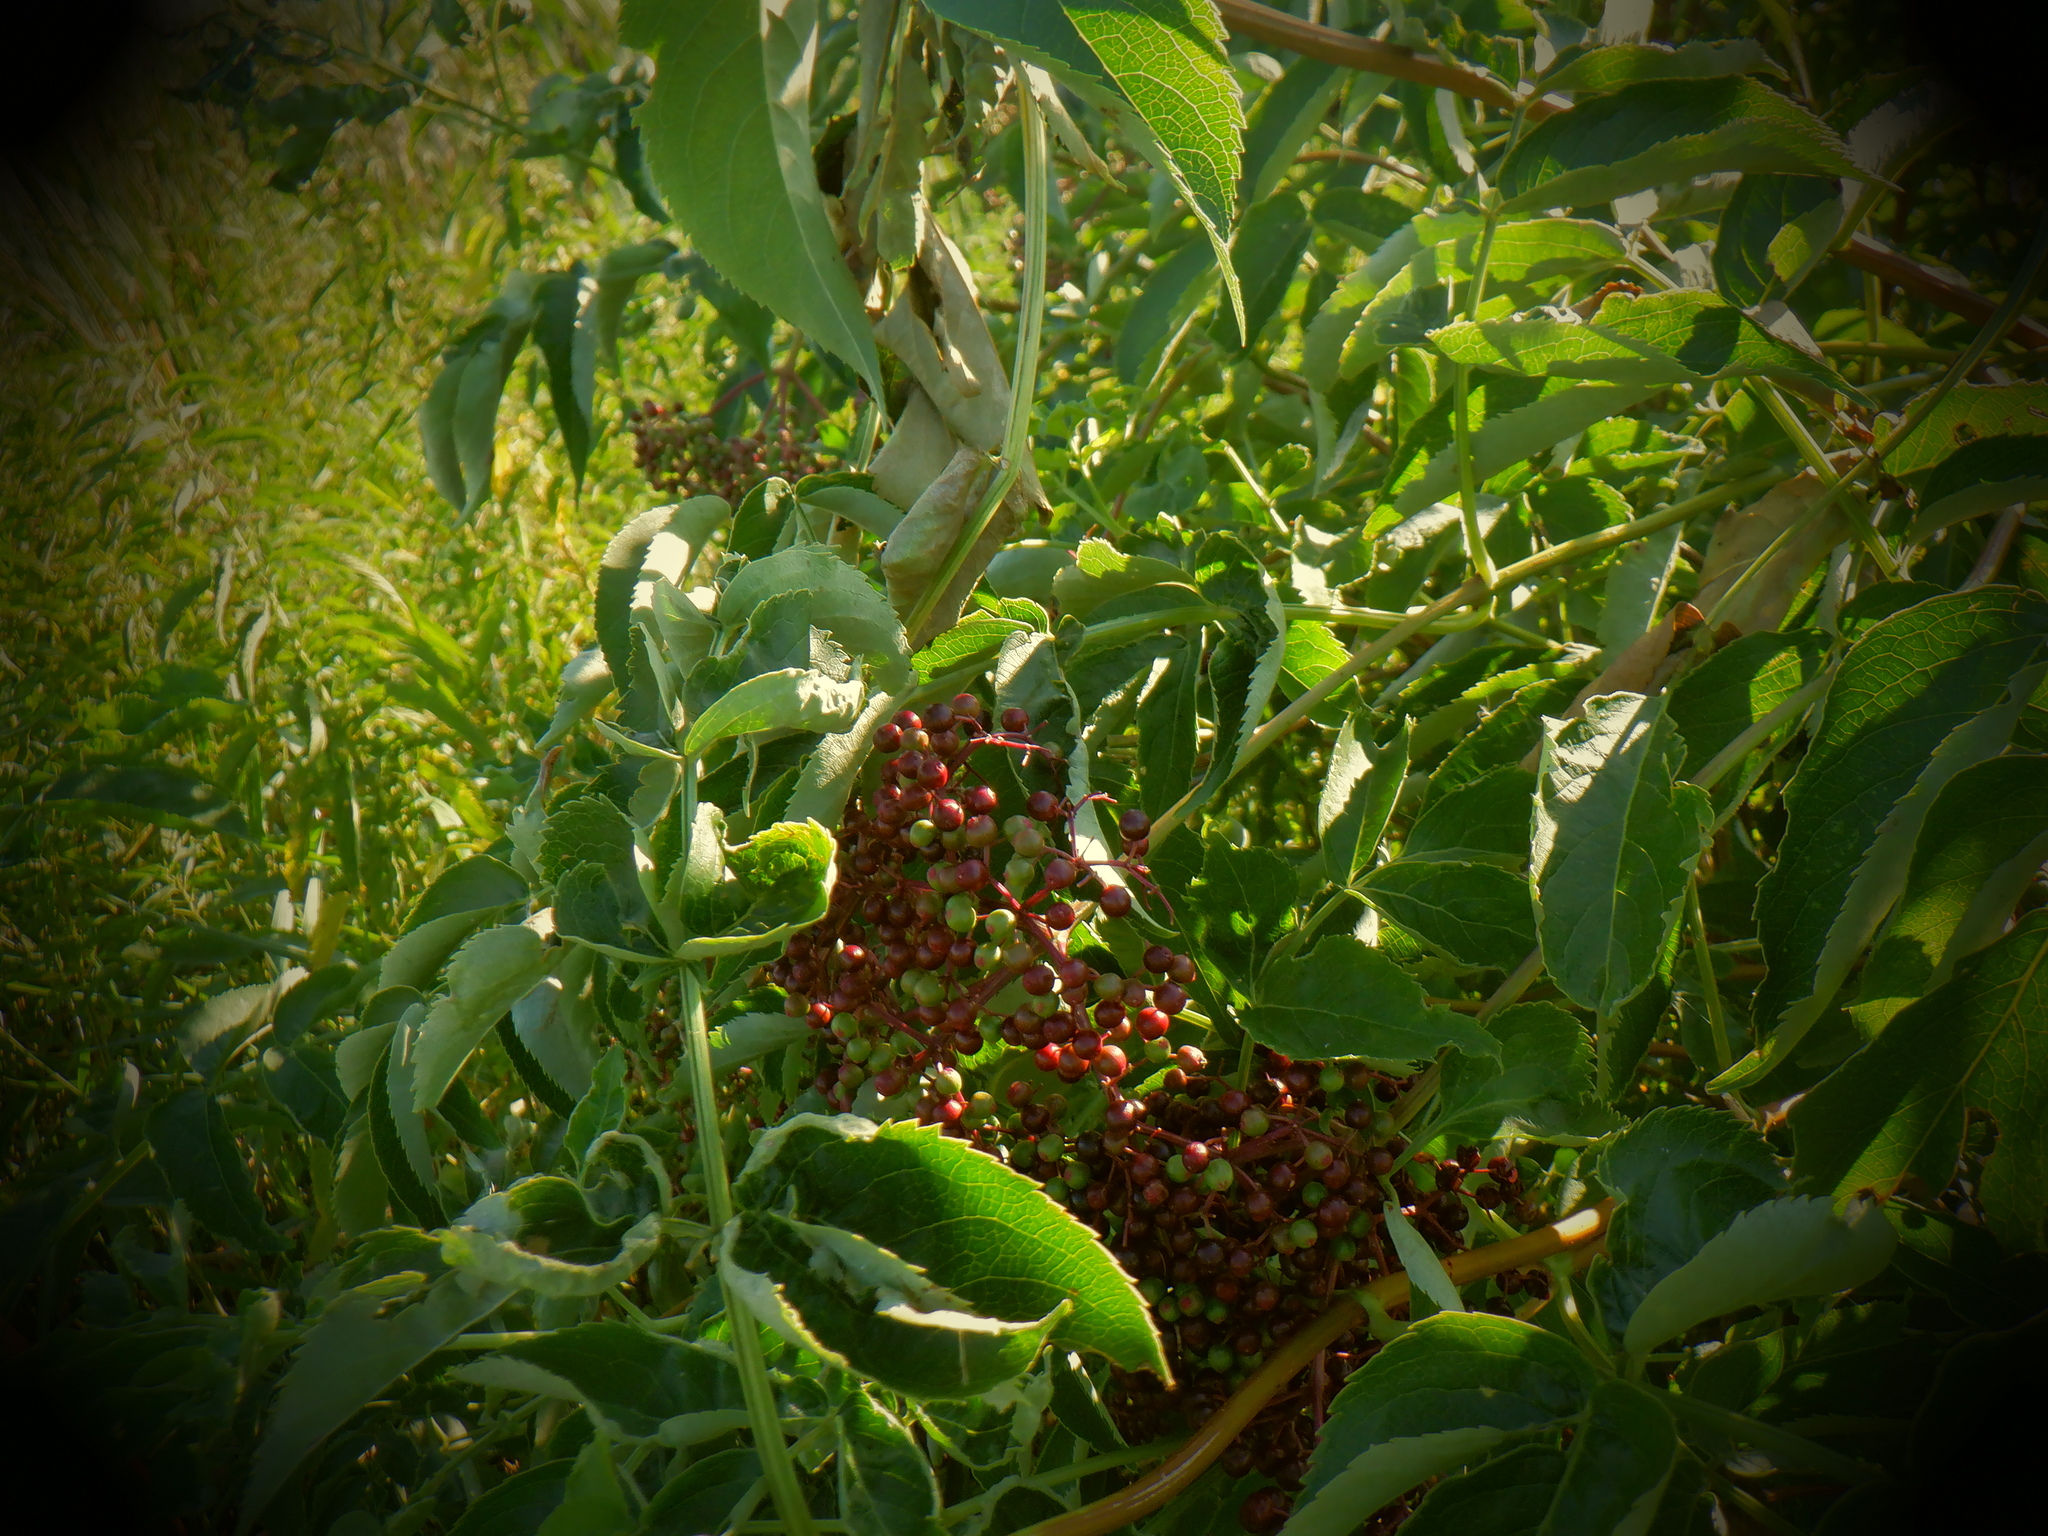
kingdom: Plantae
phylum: Tracheophyta
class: Magnoliopsida
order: Dipsacales
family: Viburnaceae
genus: Sambucus
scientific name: Sambucus canadensis
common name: American elder
